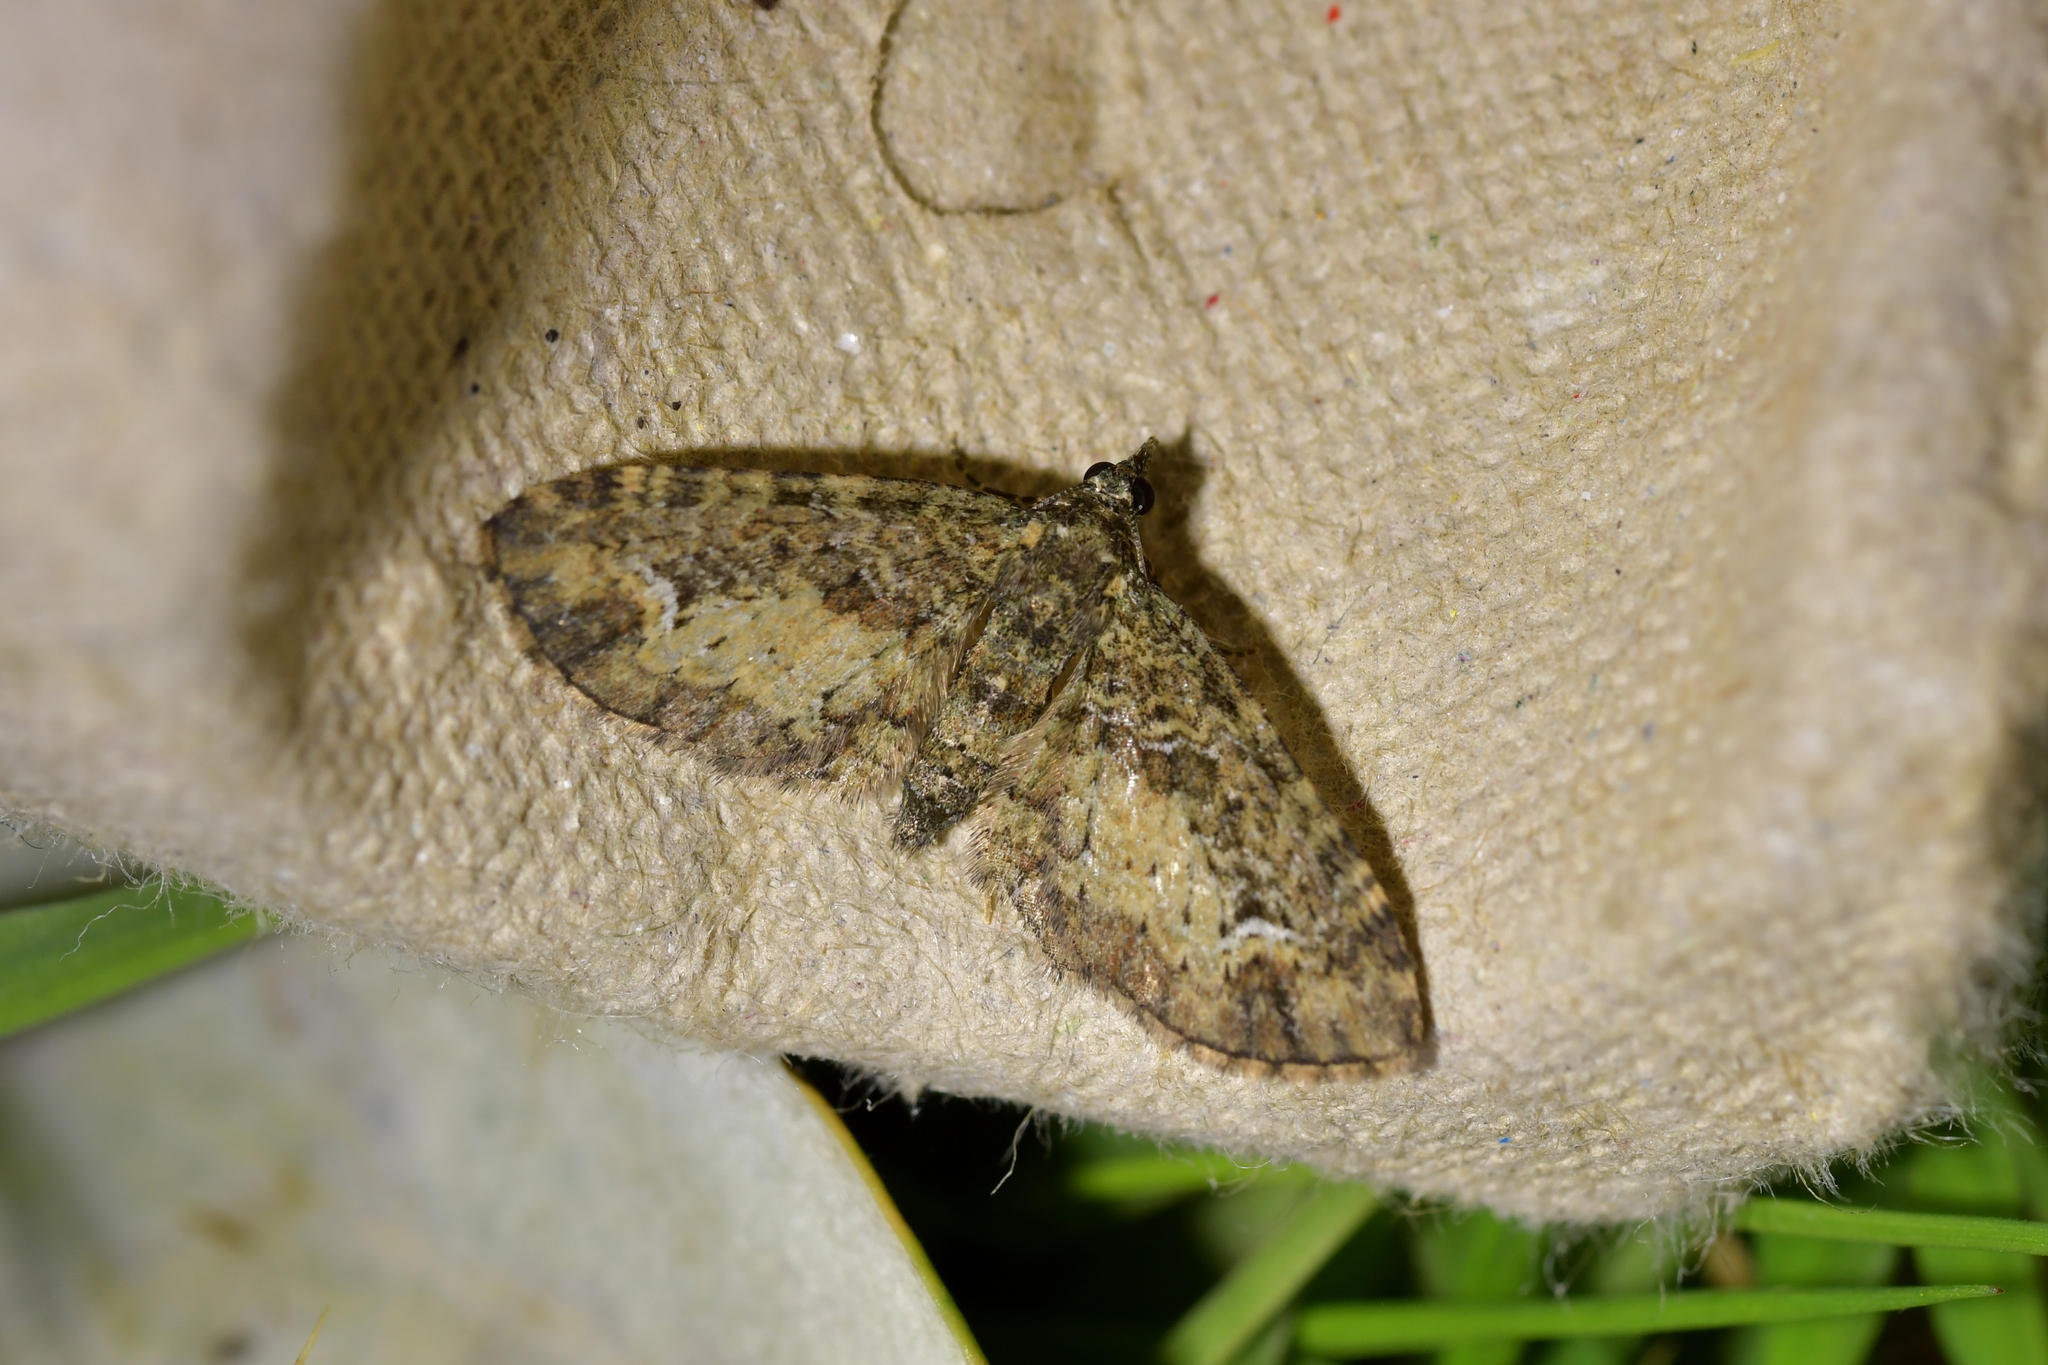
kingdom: Animalia
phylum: Arthropoda
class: Insecta
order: Lepidoptera
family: Geometridae
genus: Pasiphilodes
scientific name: Pasiphilodes testulata
